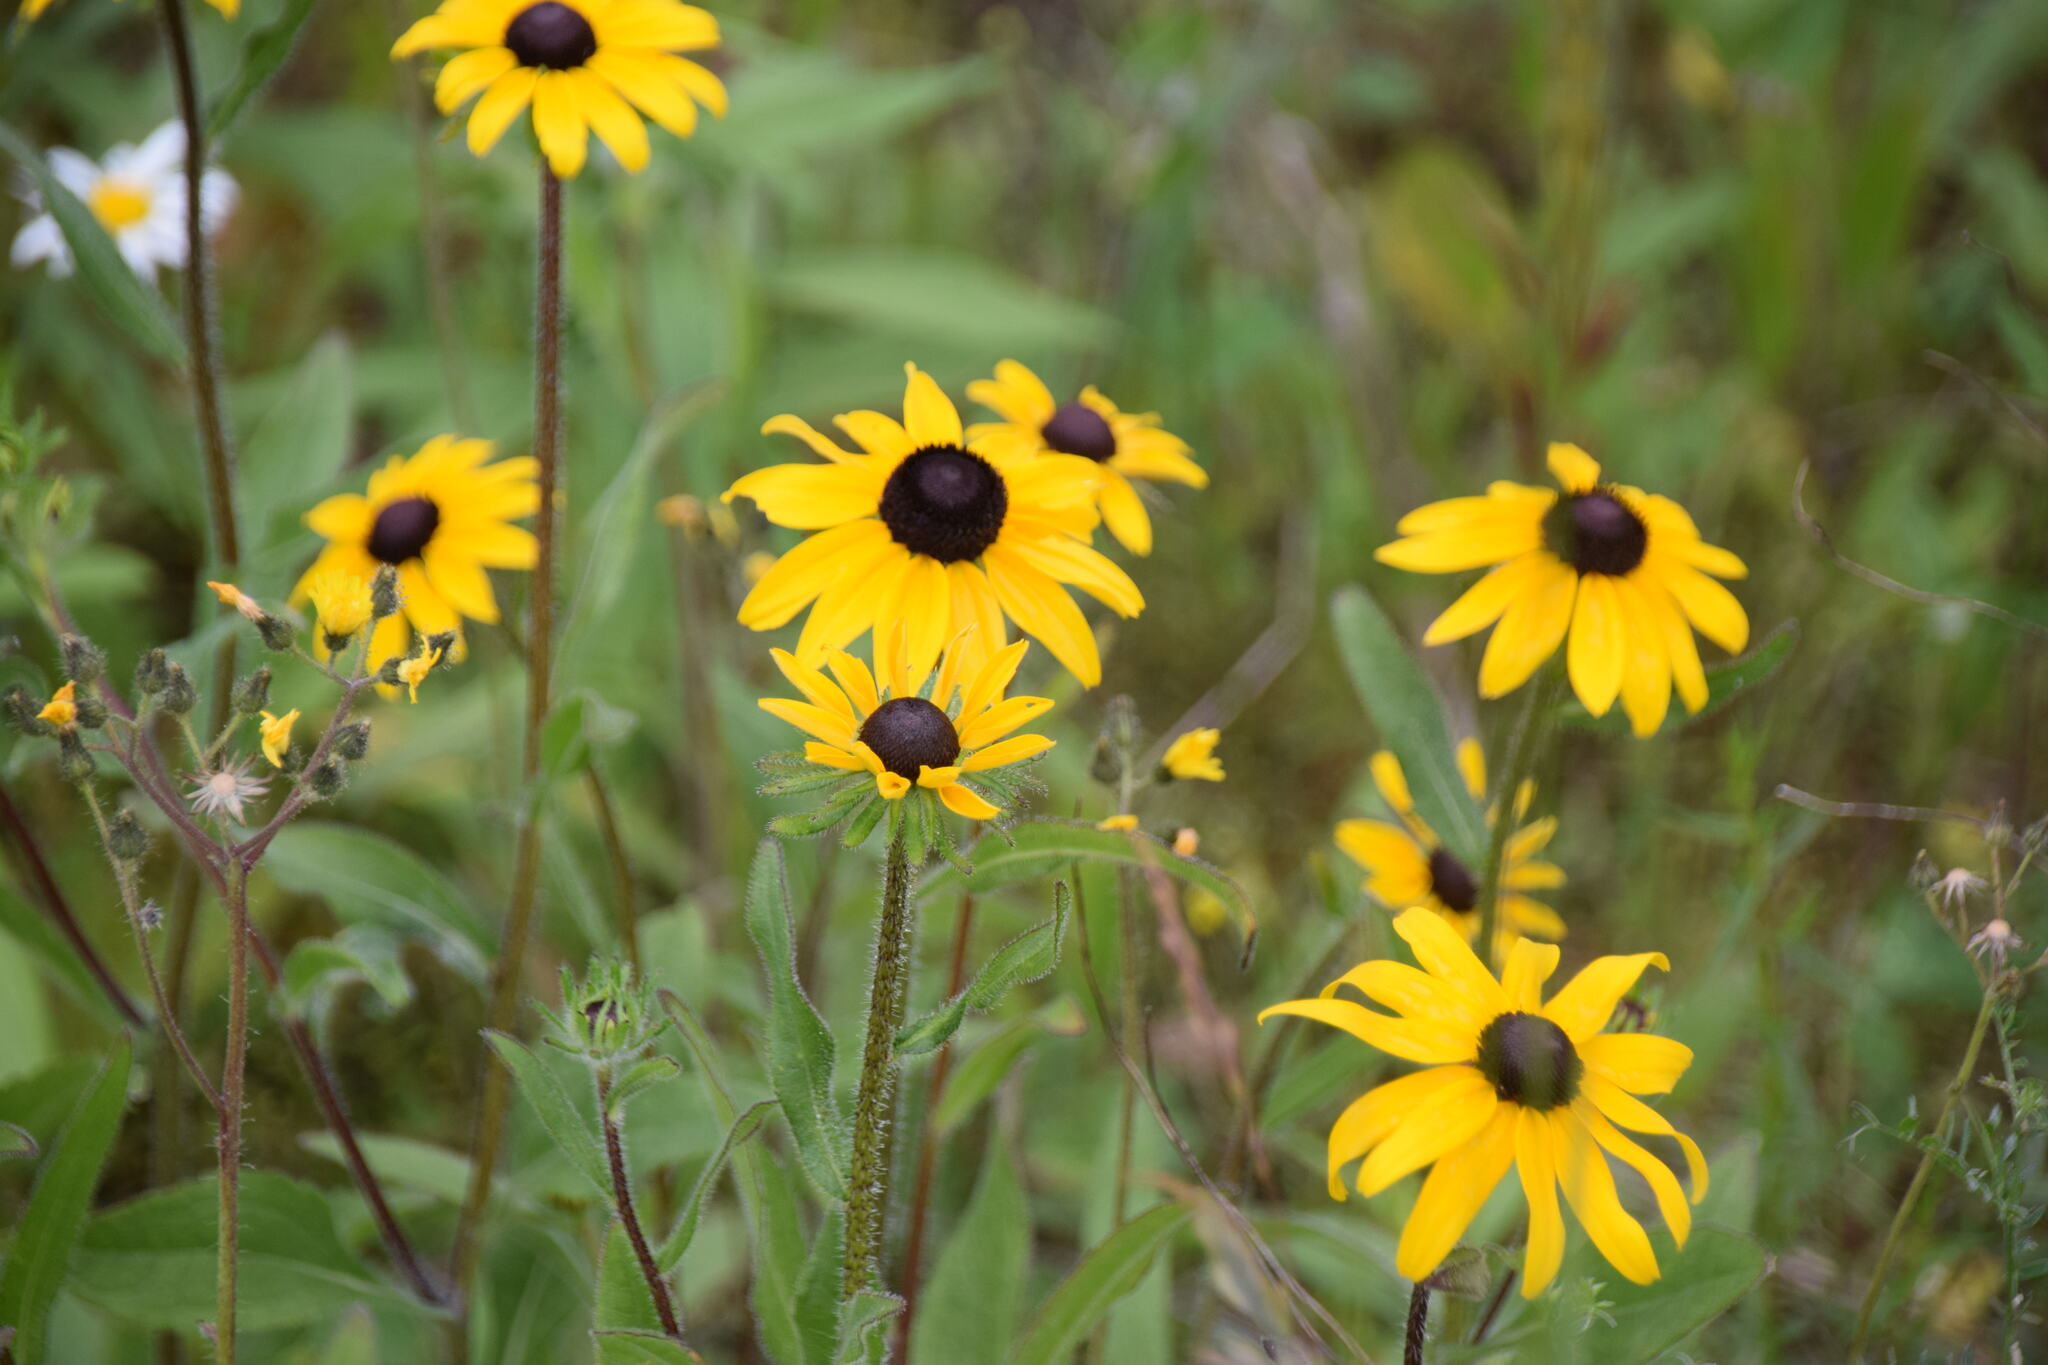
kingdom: Plantae
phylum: Tracheophyta
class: Magnoliopsida
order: Asterales
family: Asteraceae
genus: Rudbeckia
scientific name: Rudbeckia hirta
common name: Black-eyed-susan
